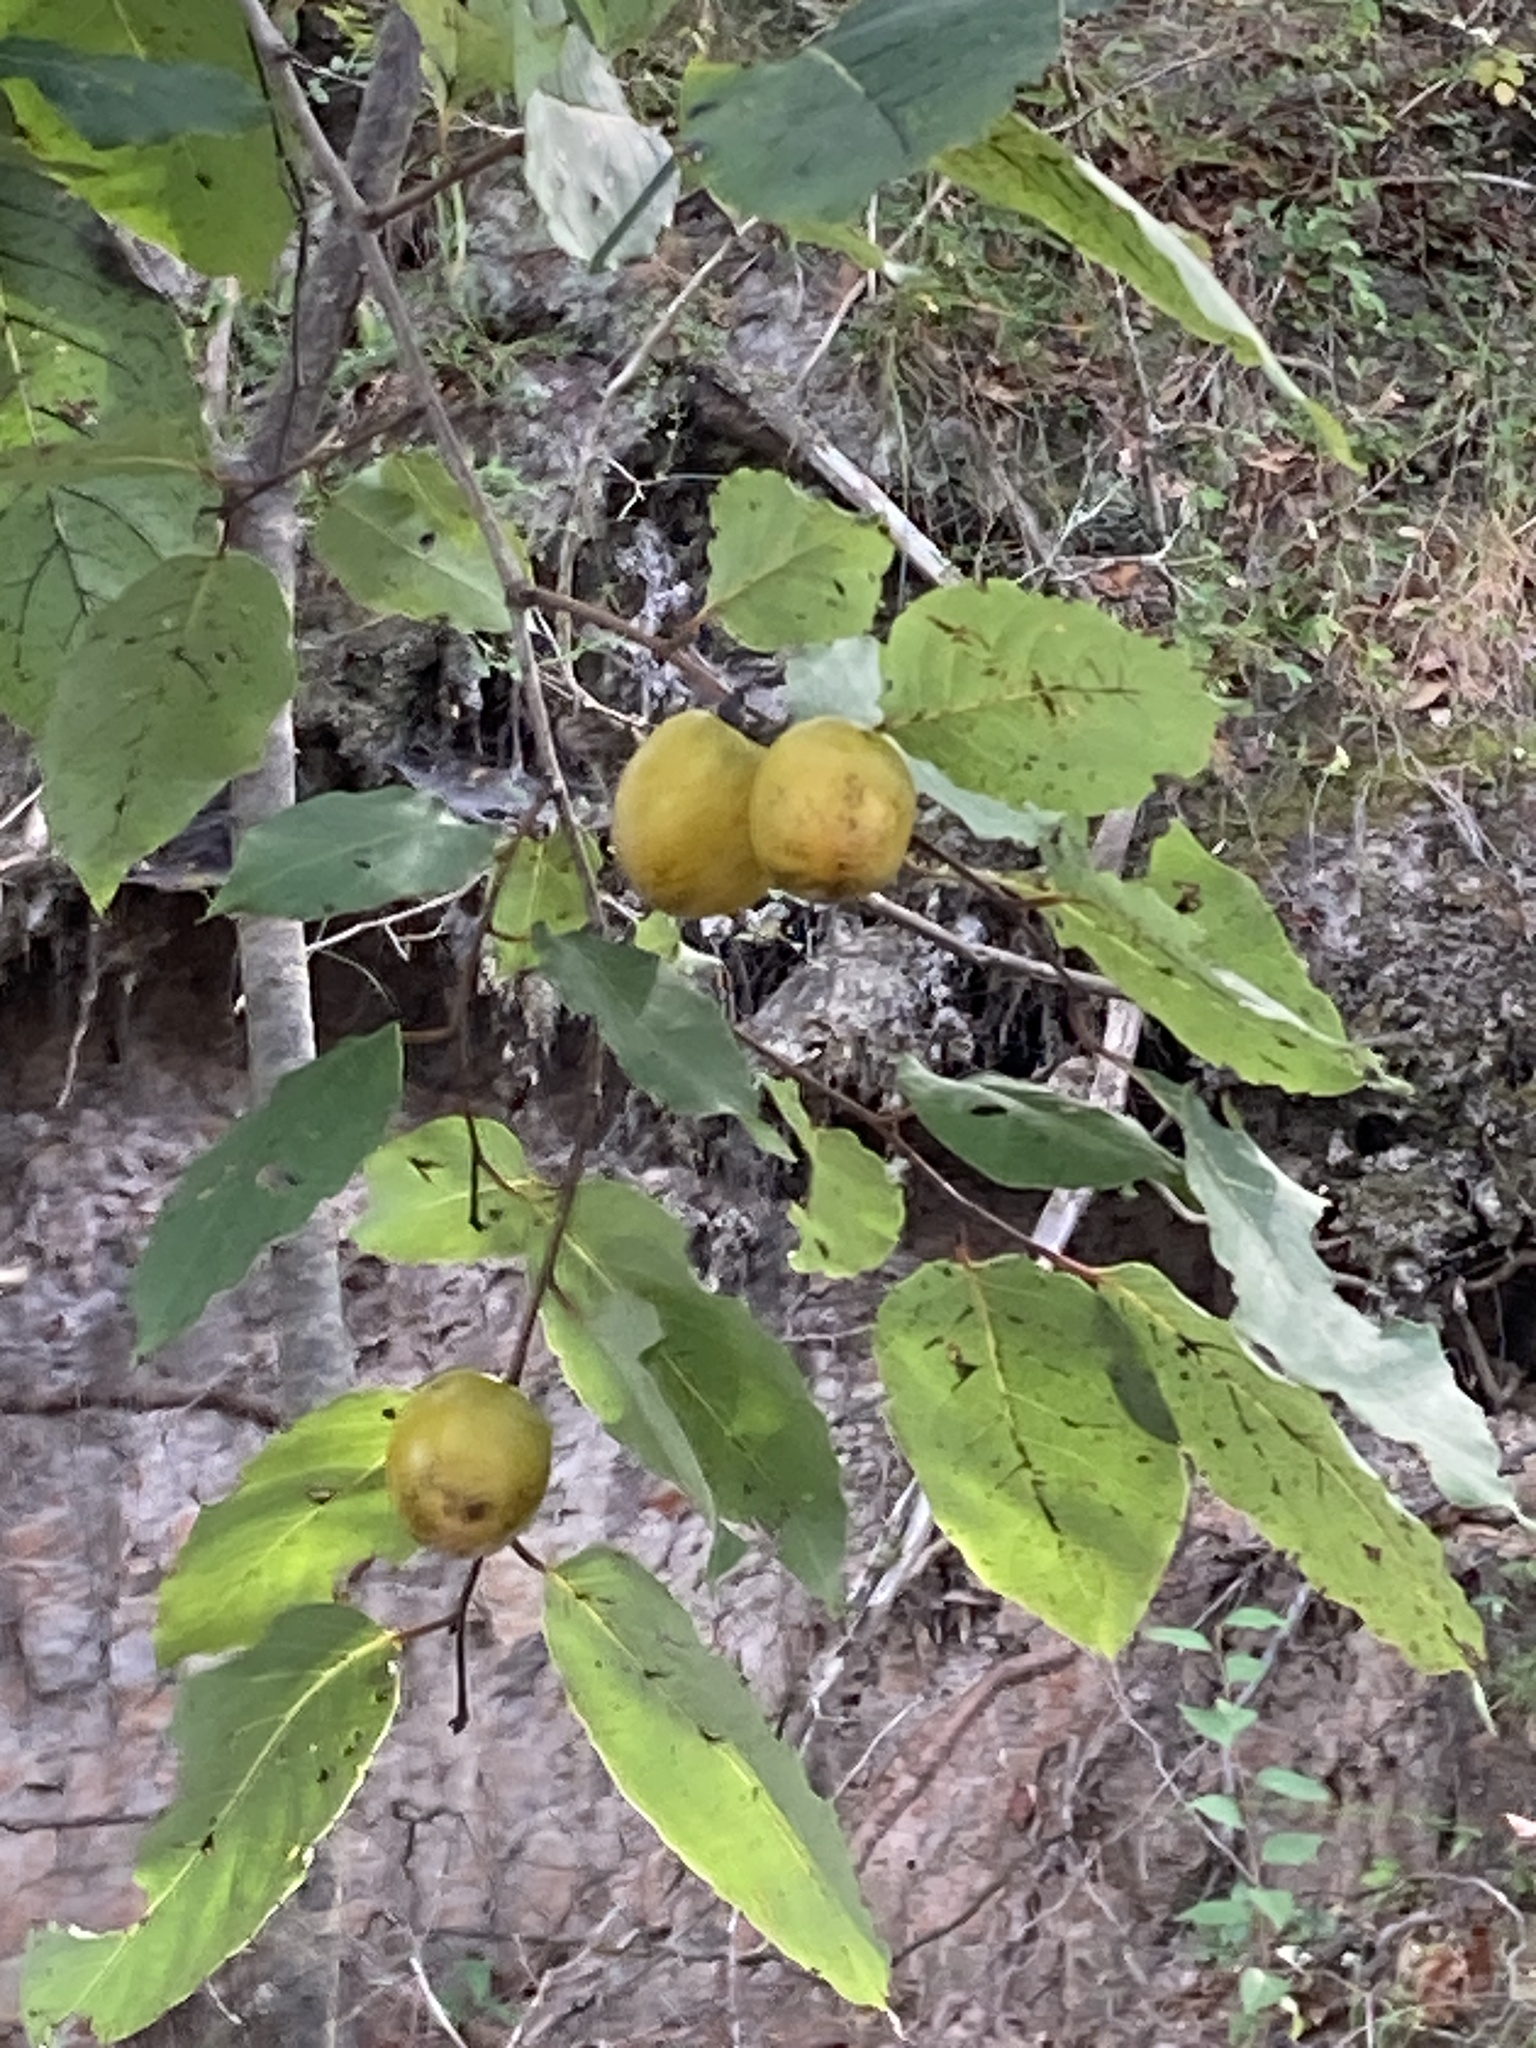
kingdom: Plantae
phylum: Tracheophyta
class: Magnoliopsida
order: Ericales
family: Ebenaceae
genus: Diospyros
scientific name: Diospyros virginiana
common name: Persimmon
